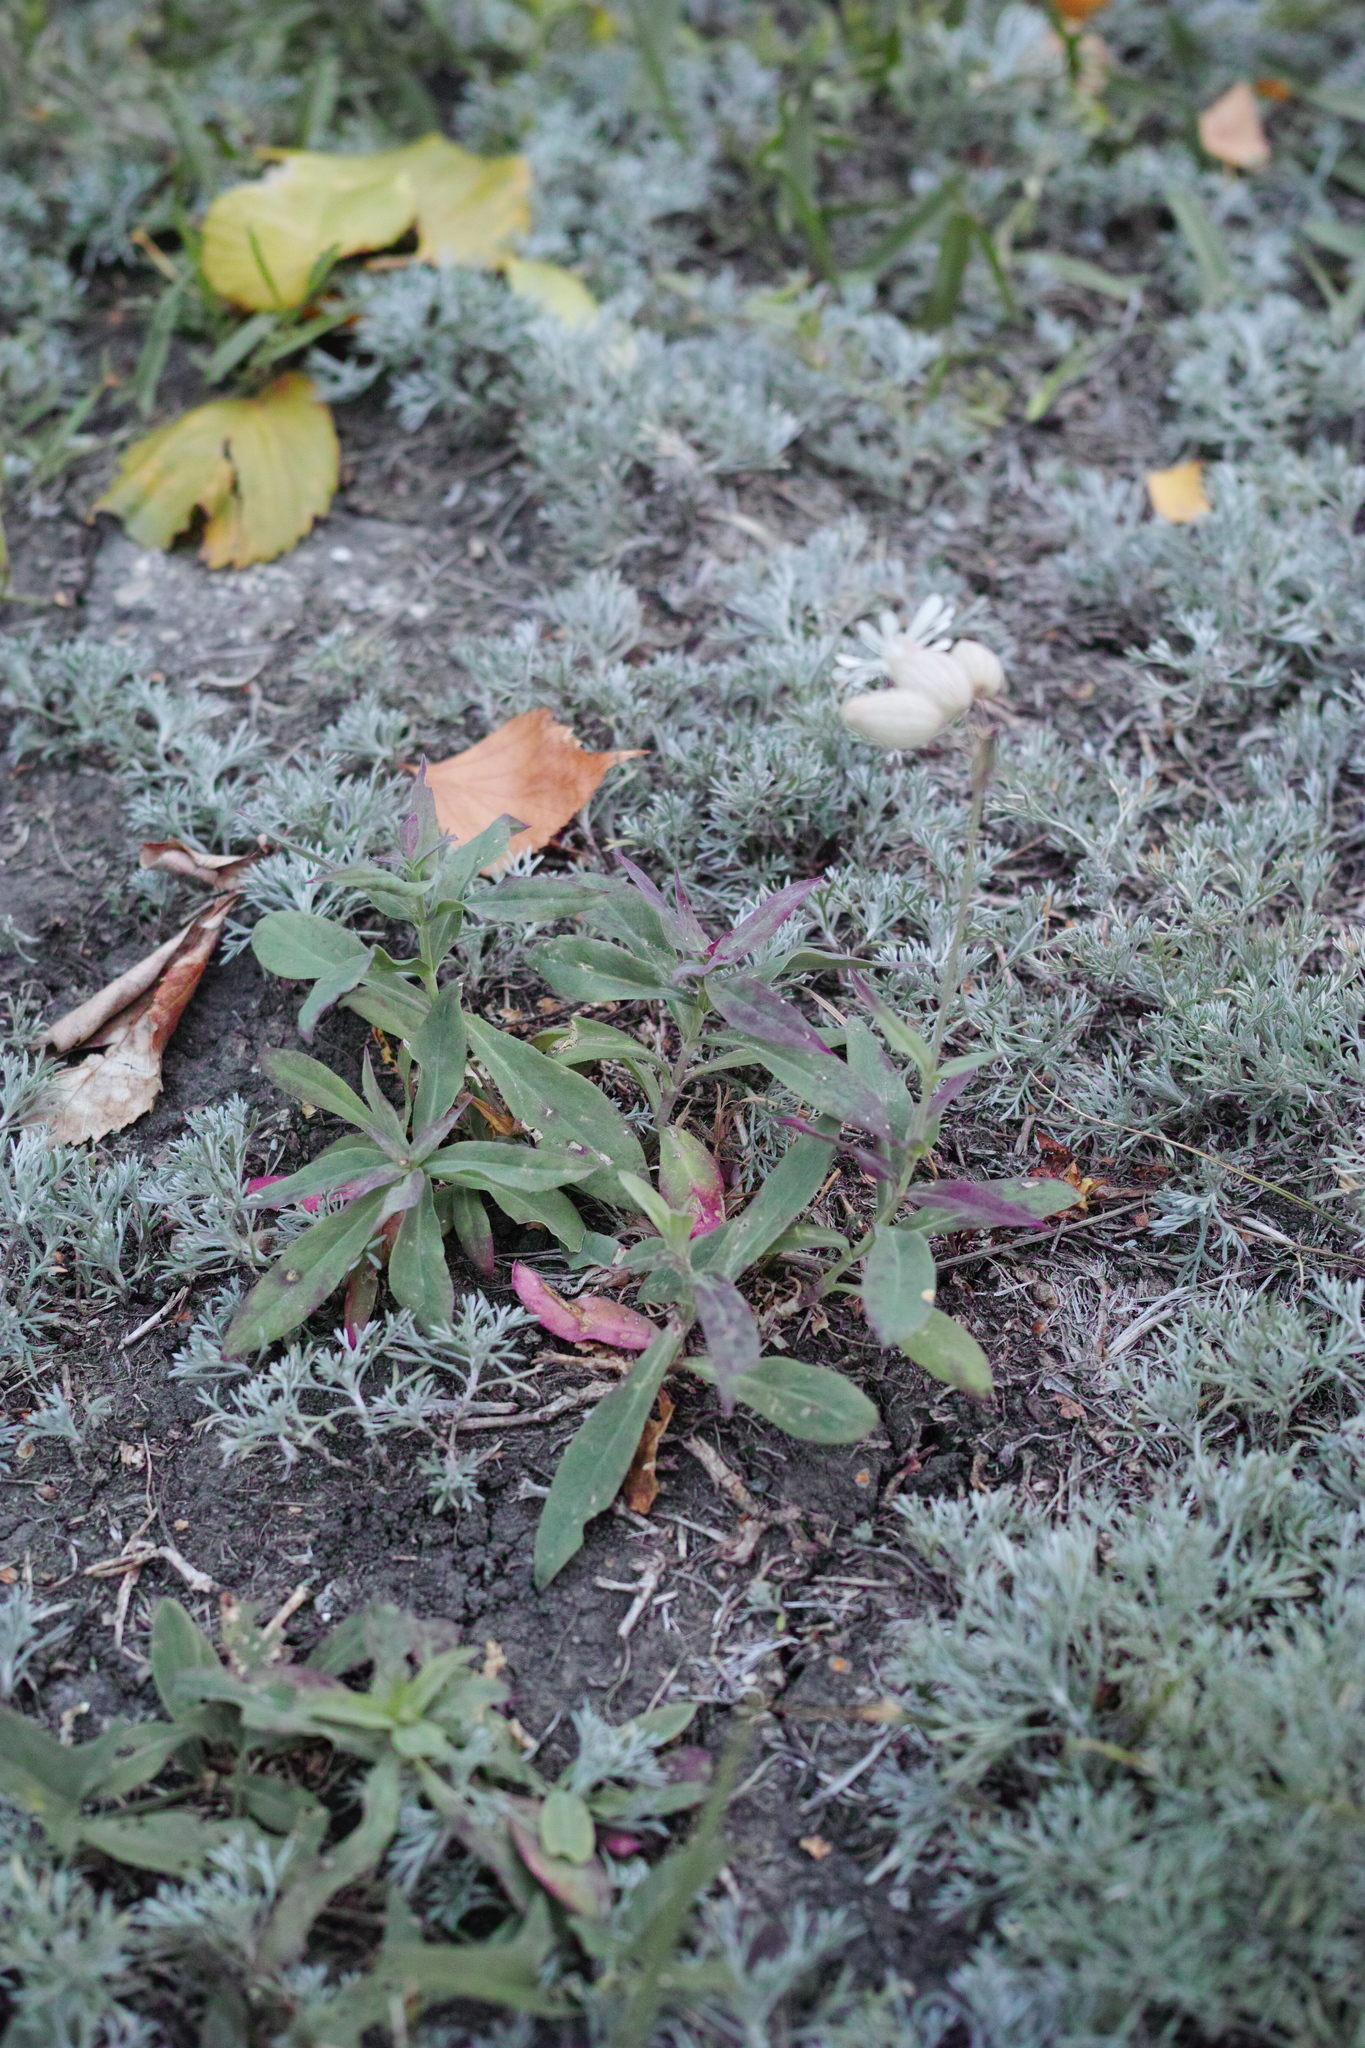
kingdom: Plantae
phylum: Tracheophyta
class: Magnoliopsida
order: Caryophyllales
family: Caryophyllaceae
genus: Silene
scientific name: Silene vulgaris
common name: Bladder campion
